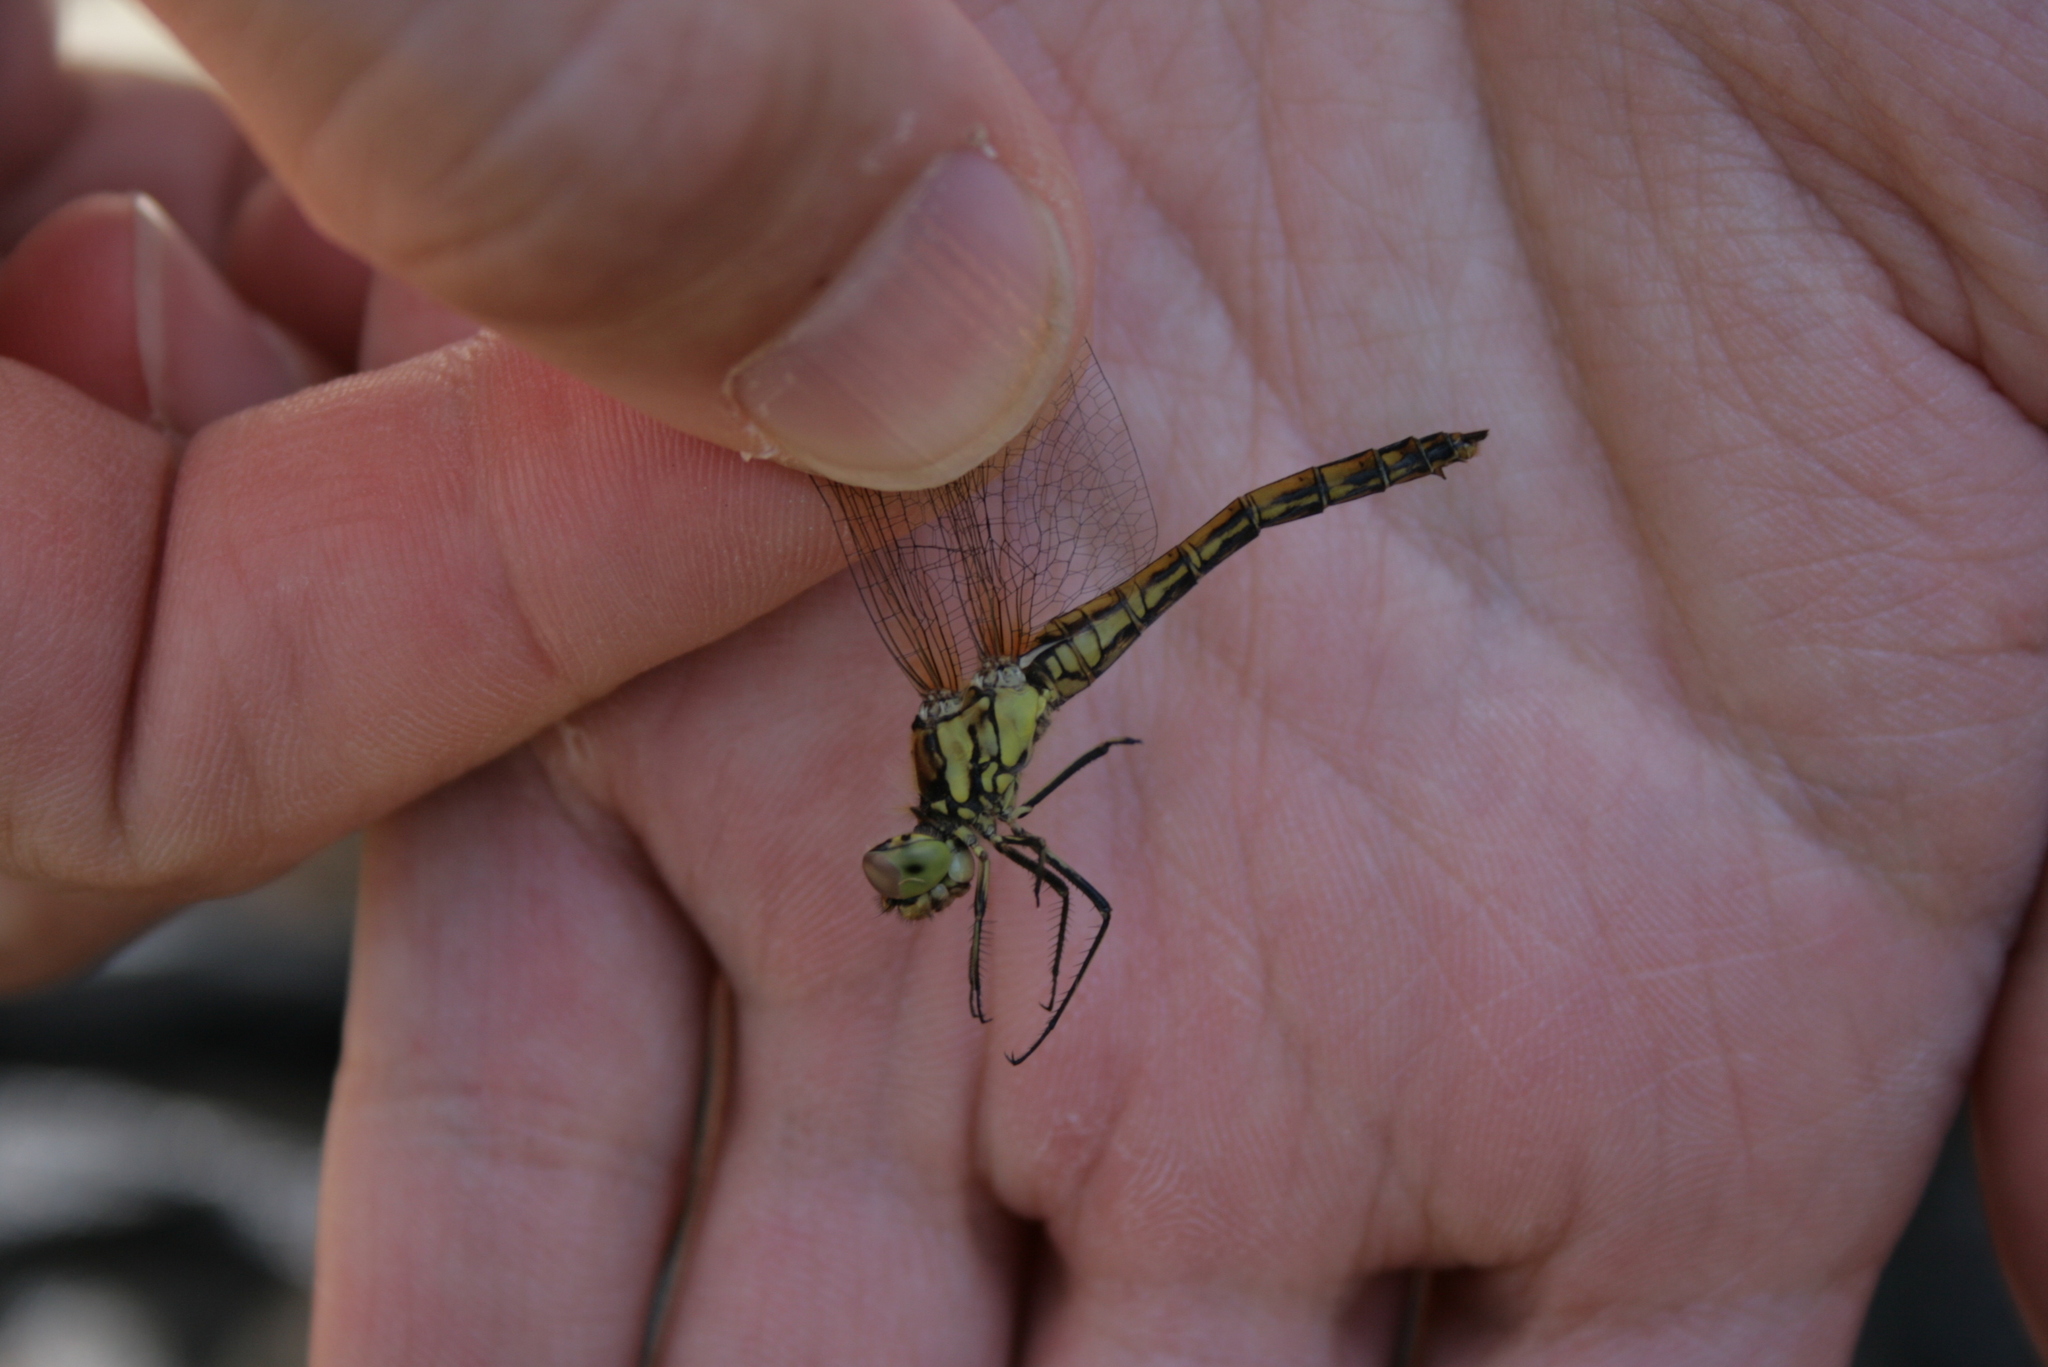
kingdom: Animalia
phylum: Arthropoda
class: Insecta
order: Odonata
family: Libellulidae
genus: Sympetrum
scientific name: Sympetrum vulgatum
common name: Vagrant darter
